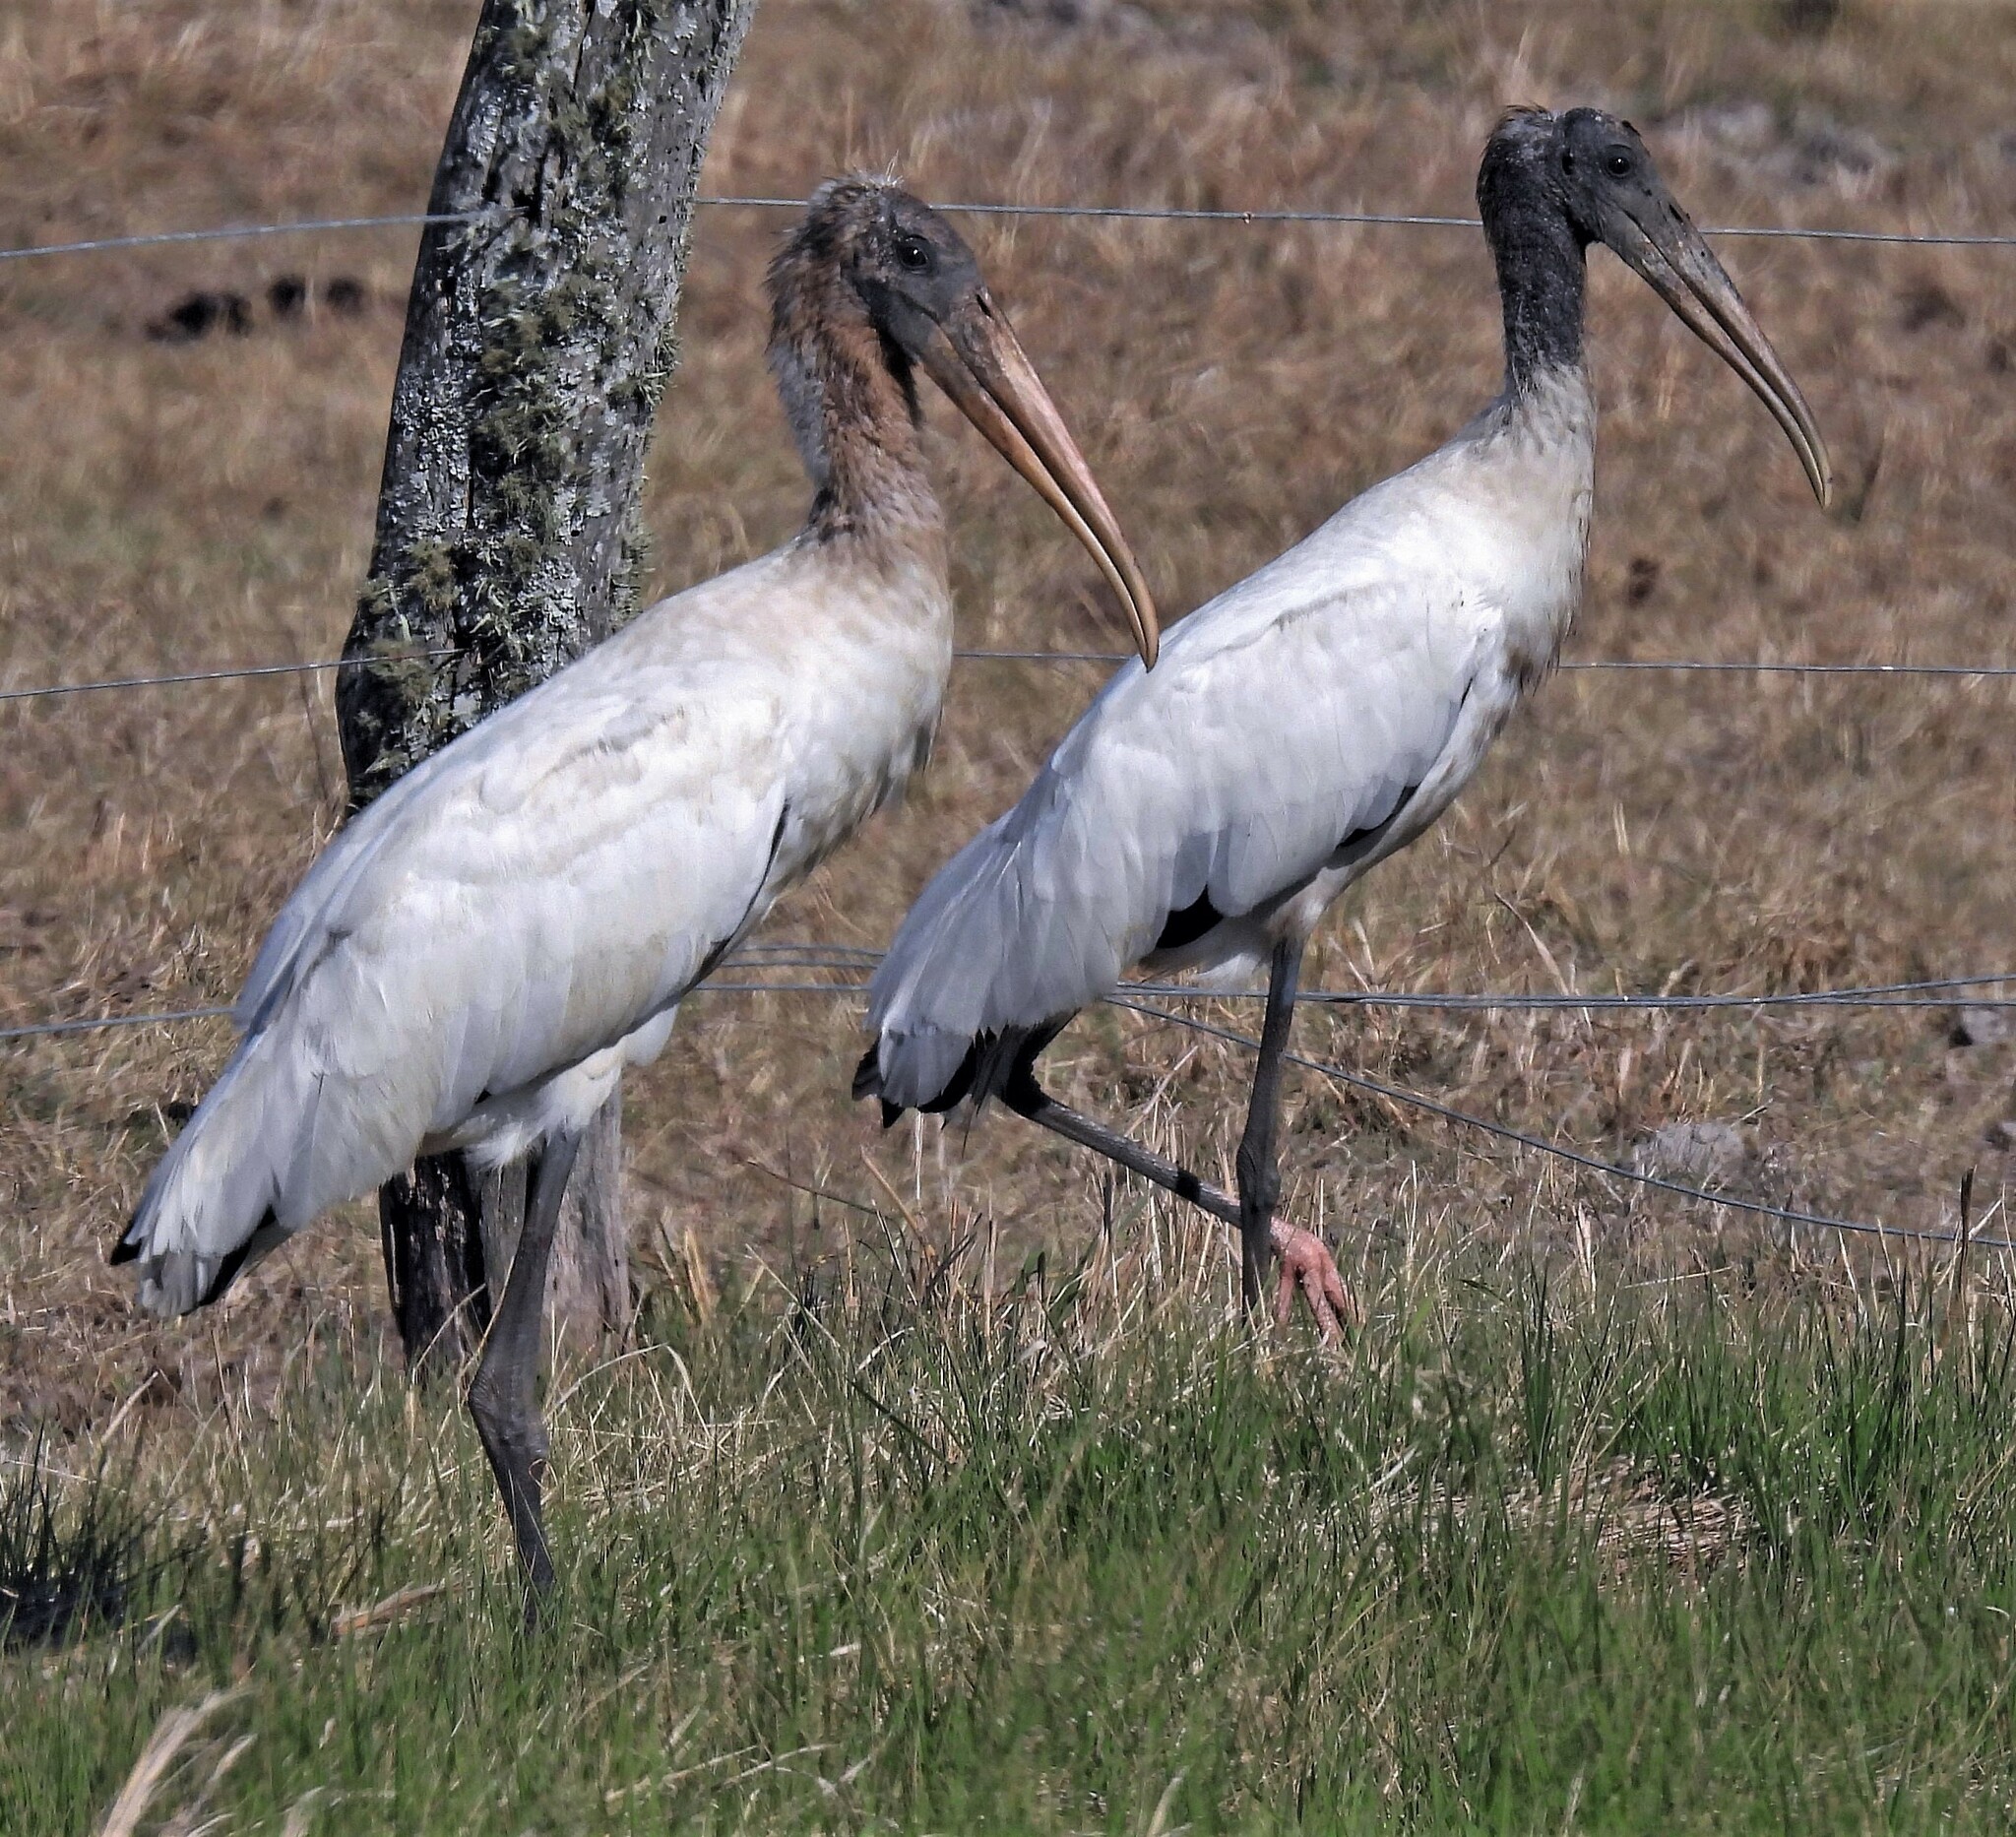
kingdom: Animalia
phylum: Chordata
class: Aves
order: Ciconiiformes
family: Ciconiidae
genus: Mycteria
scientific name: Mycteria americana
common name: Wood stork
